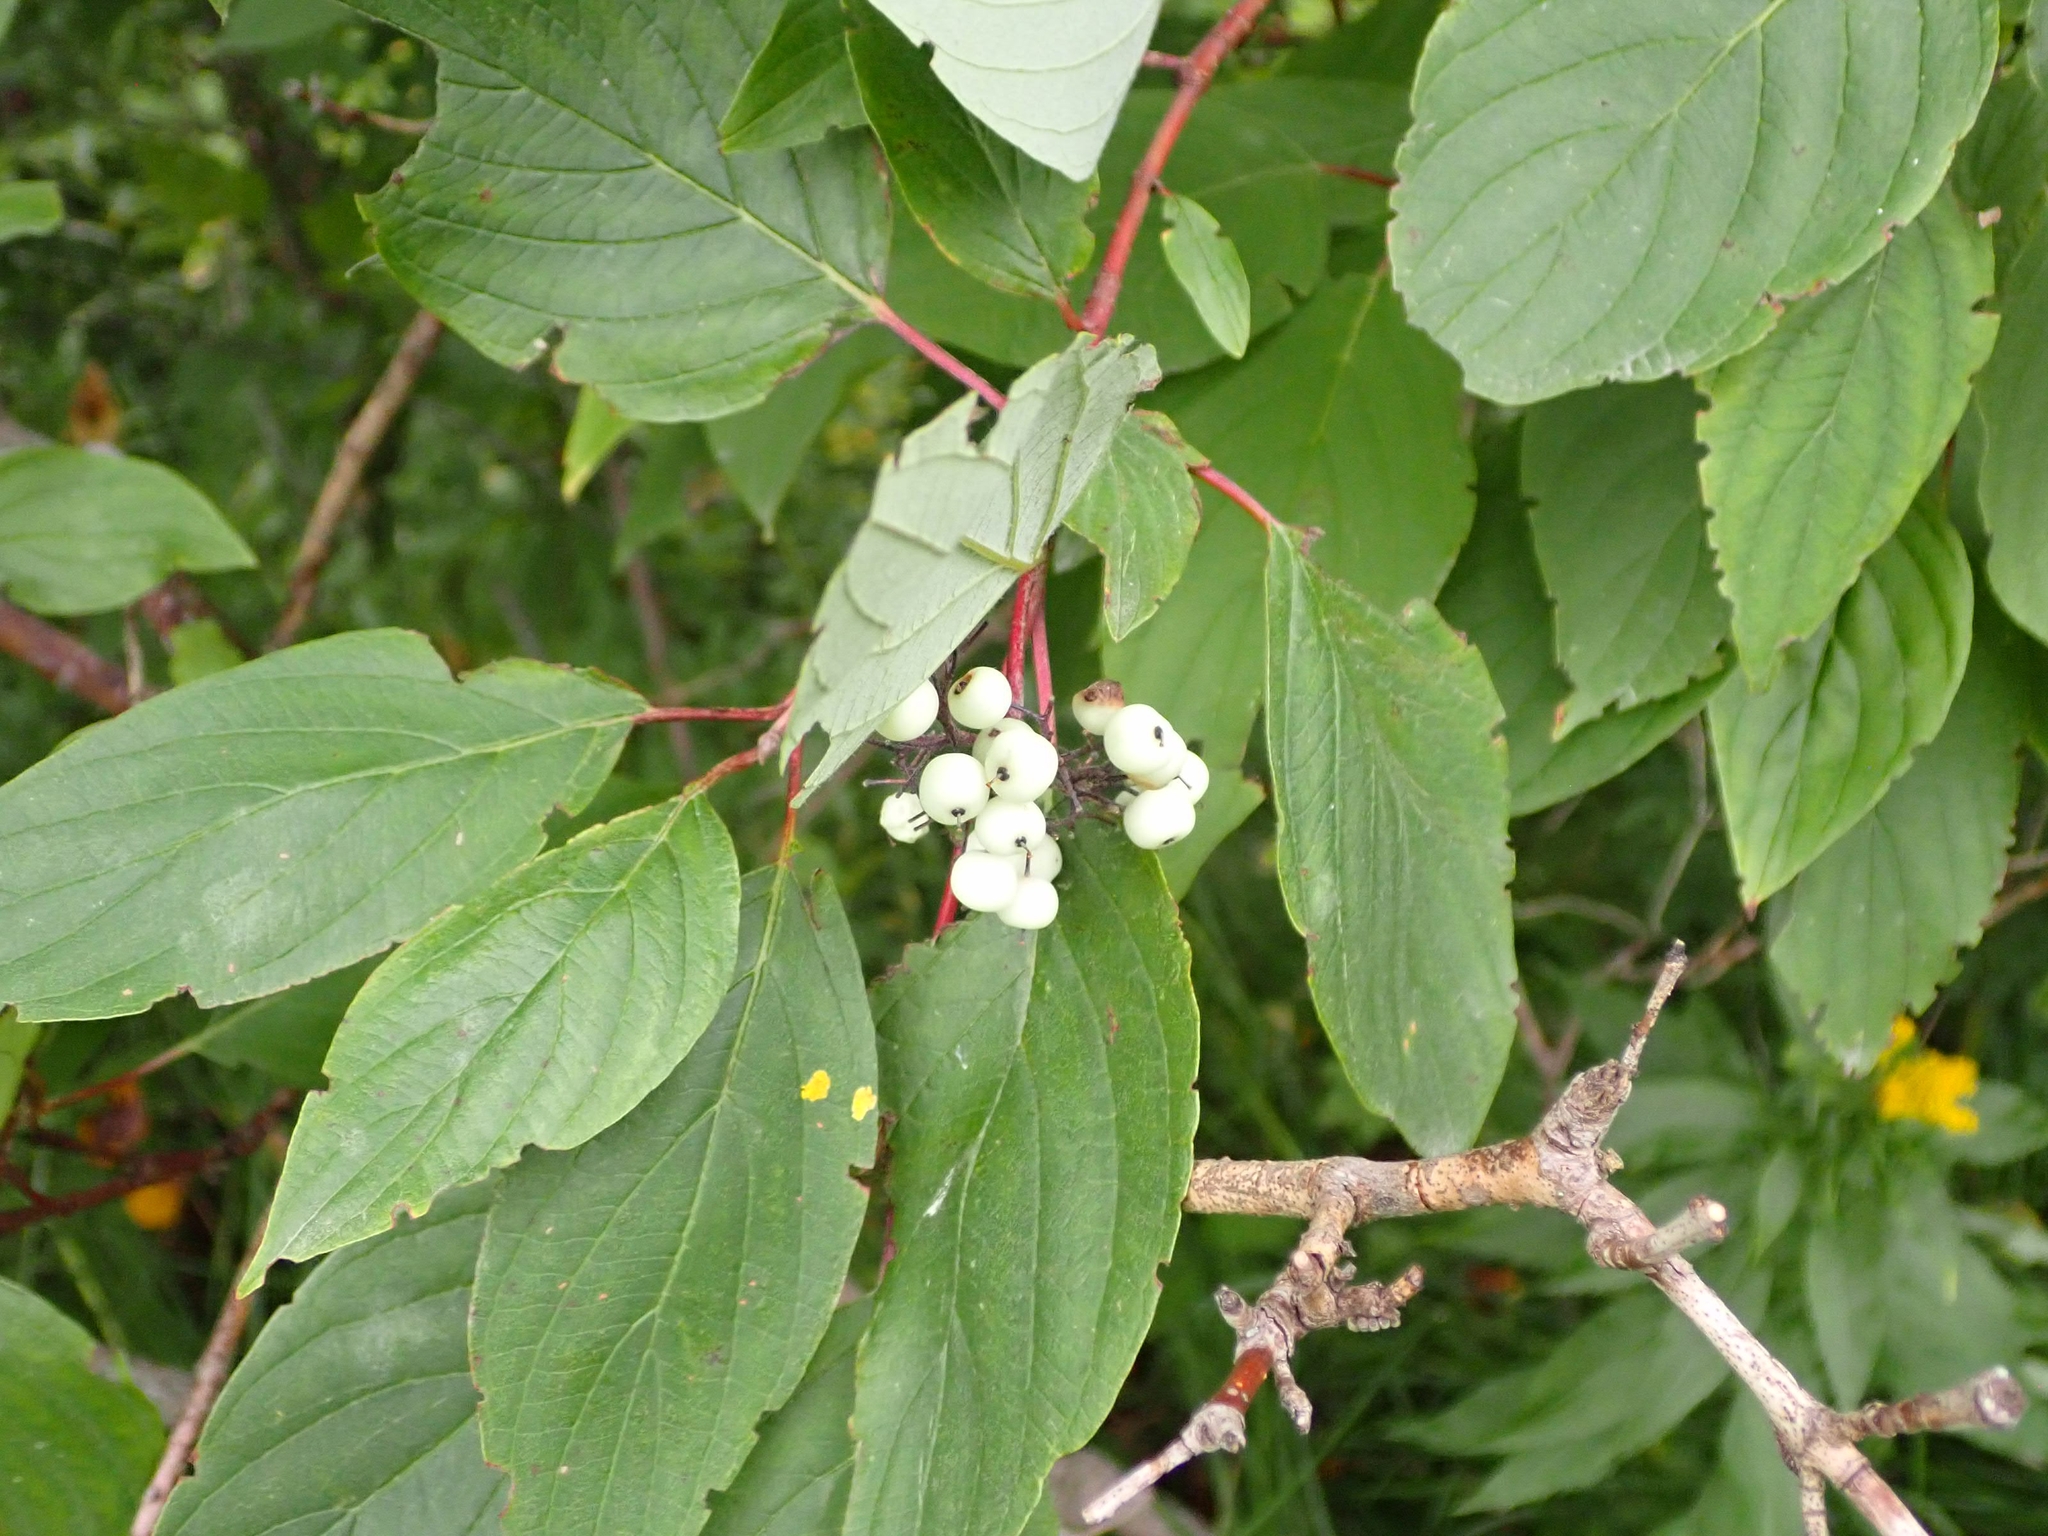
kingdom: Plantae
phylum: Tracheophyta
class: Magnoliopsida
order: Cornales
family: Cornaceae
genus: Cornus
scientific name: Cornus sericea
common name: Red-osier dogwood
